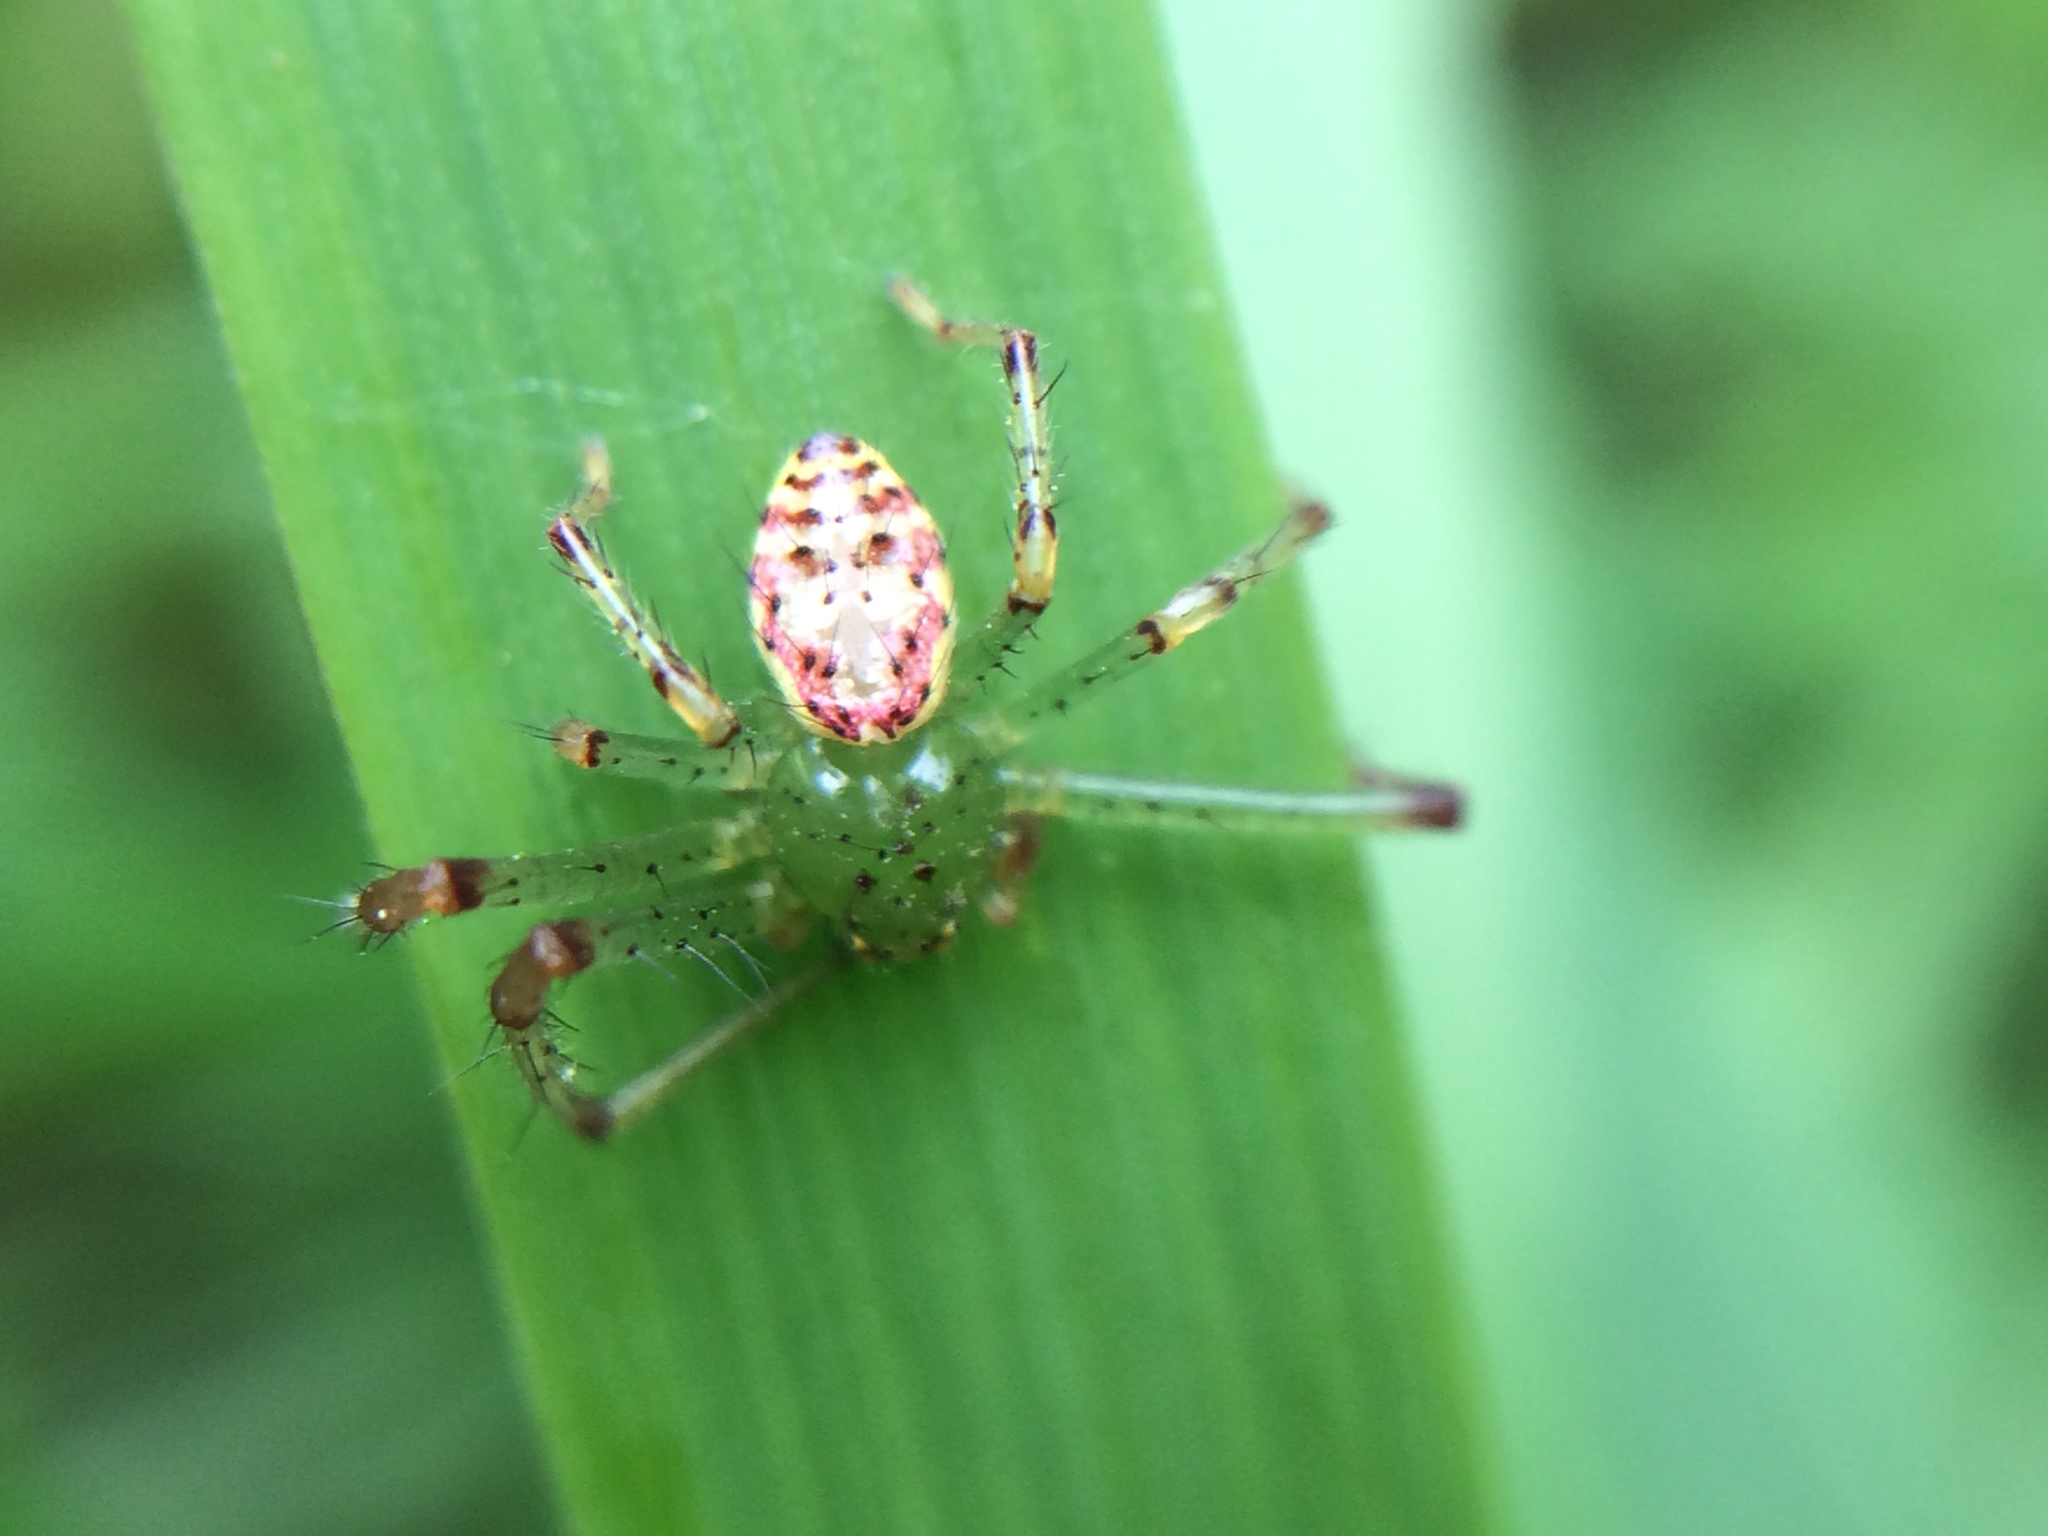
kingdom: Animalia
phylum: Arthropoda
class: Arachnida
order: Araneae
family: Thomisidae
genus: Diaea
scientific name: Diaea livens
